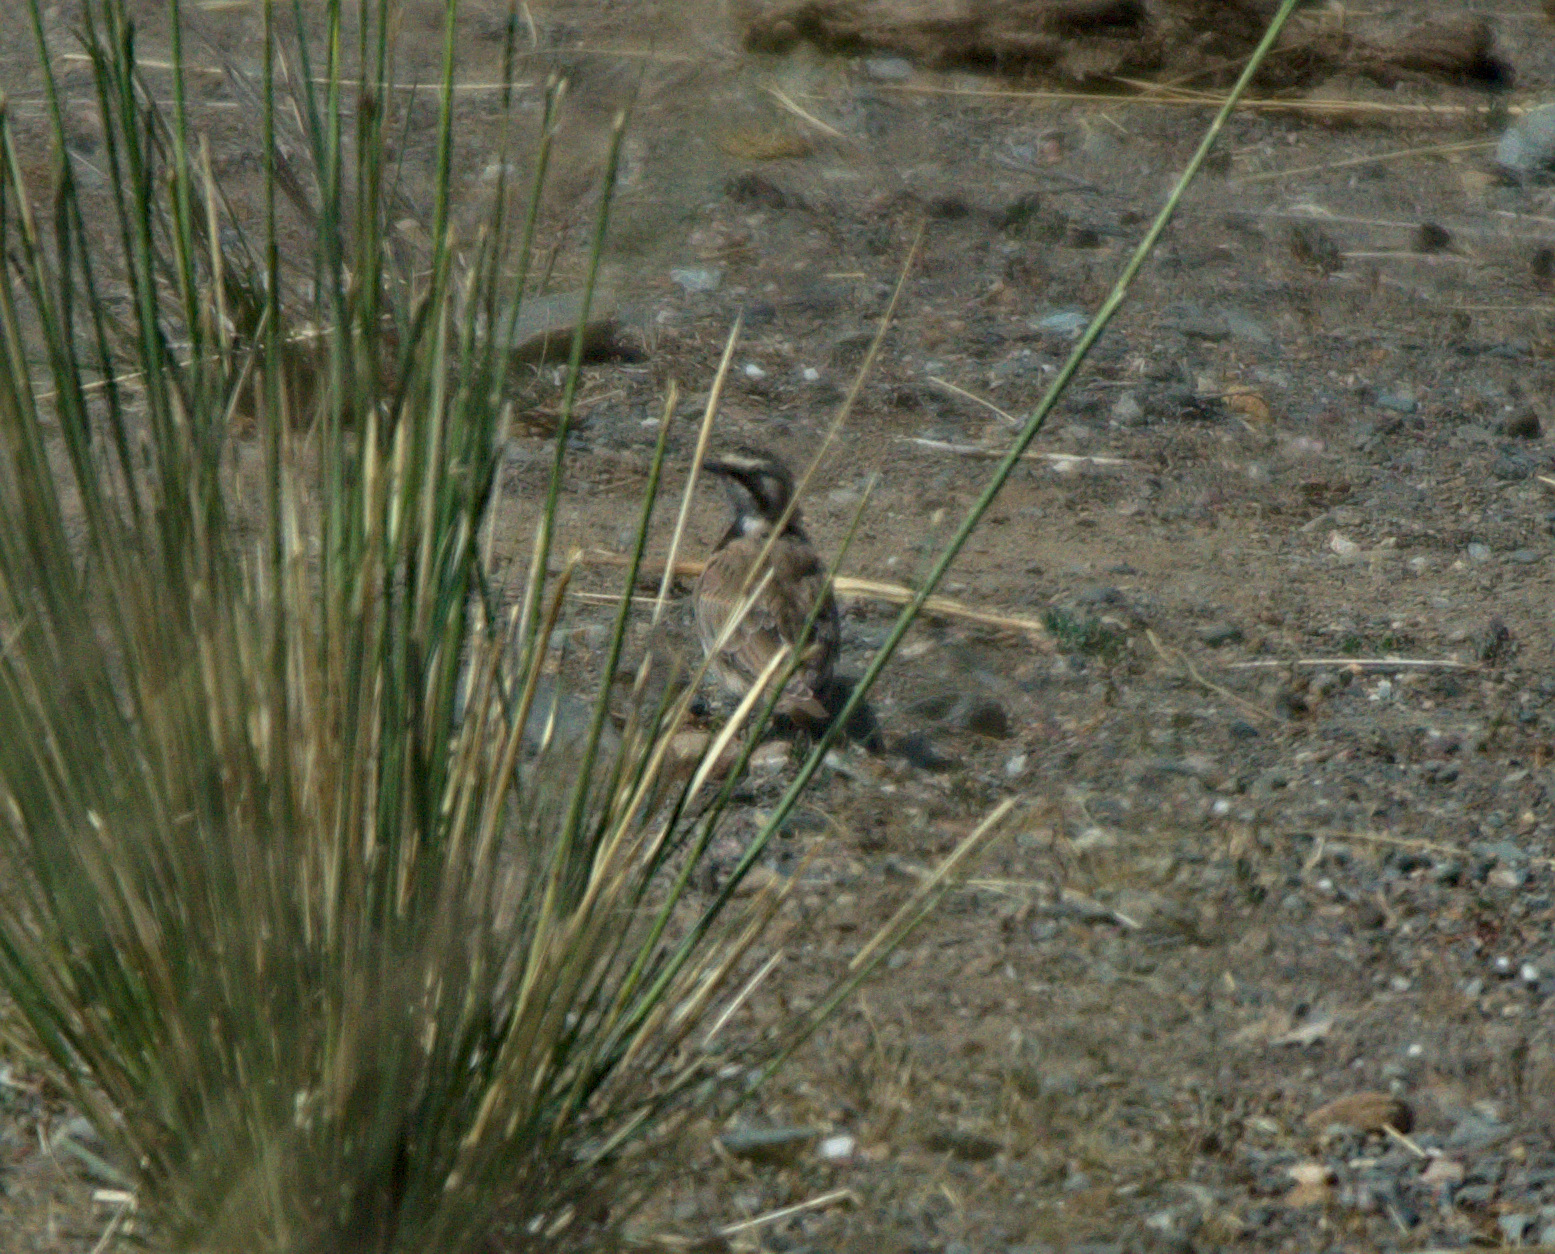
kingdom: Animalia
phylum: Chordata
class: Aves
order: Passeriformes
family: Alaudidae
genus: Eremophila
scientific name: Eremophila alpestris
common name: Horned lark
